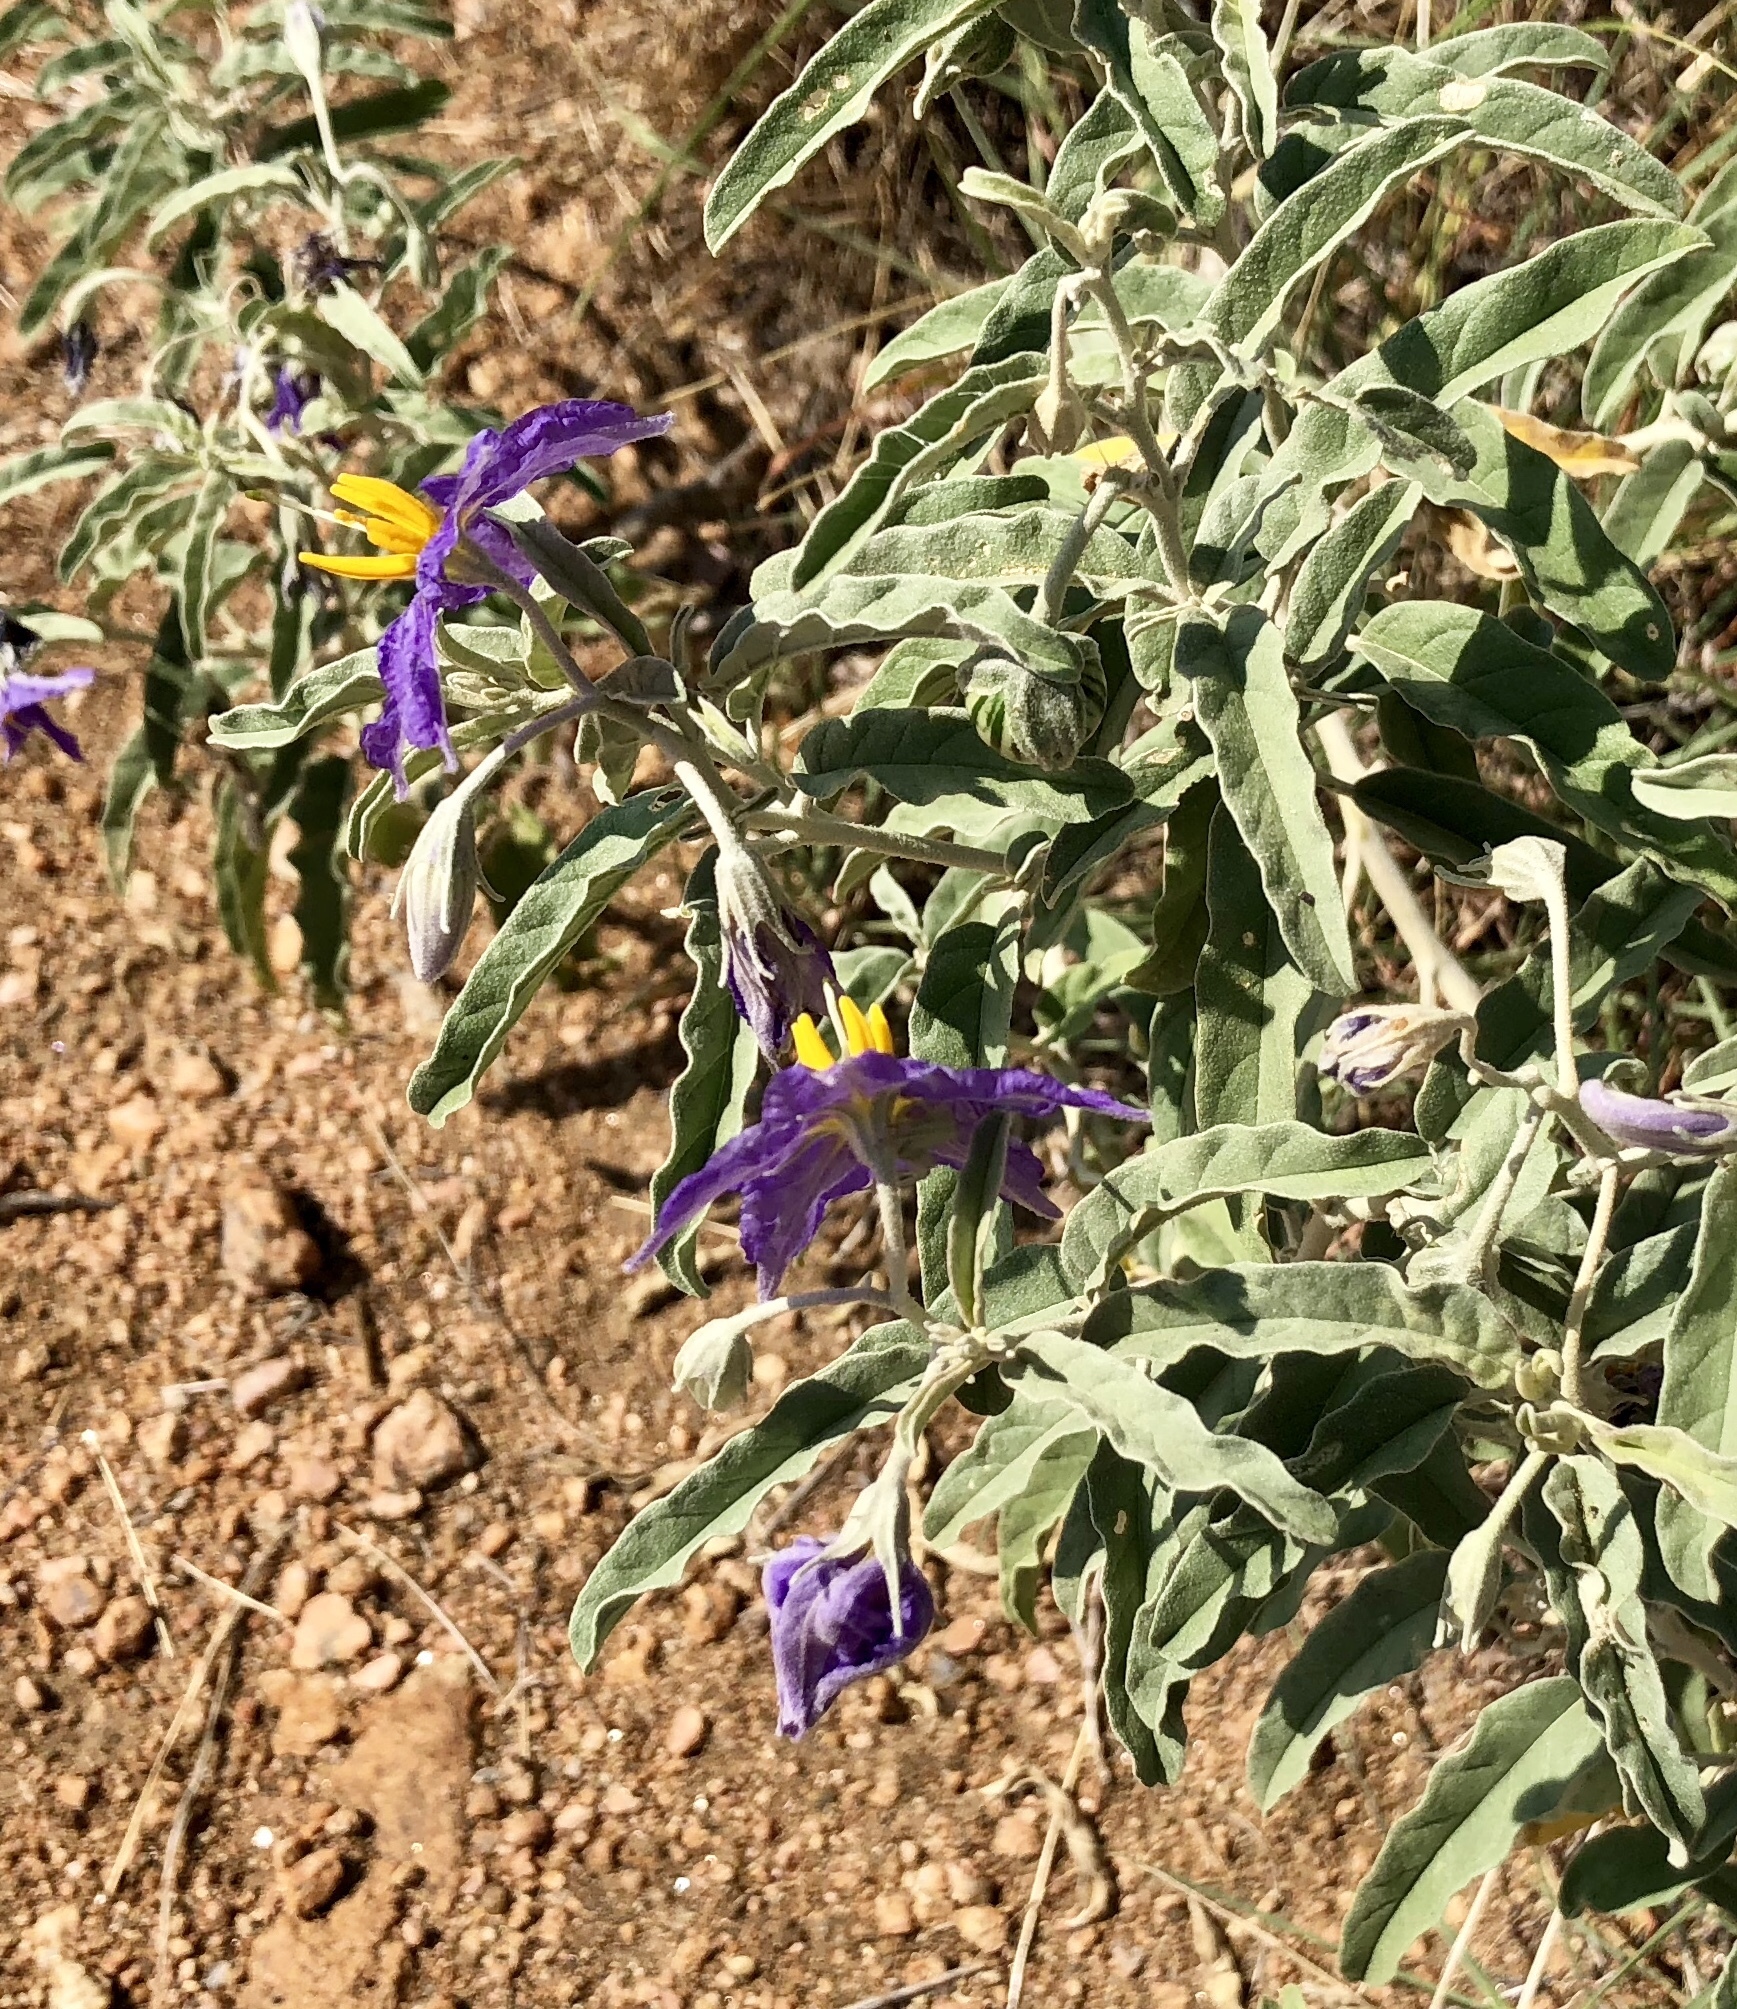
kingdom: Plantae
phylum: Tracheophyta
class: Magnoliopsida
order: Solanales
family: Solanaceae
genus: Solanum
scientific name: Solanum elaeagnifolium
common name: Silverleaf nightshade
